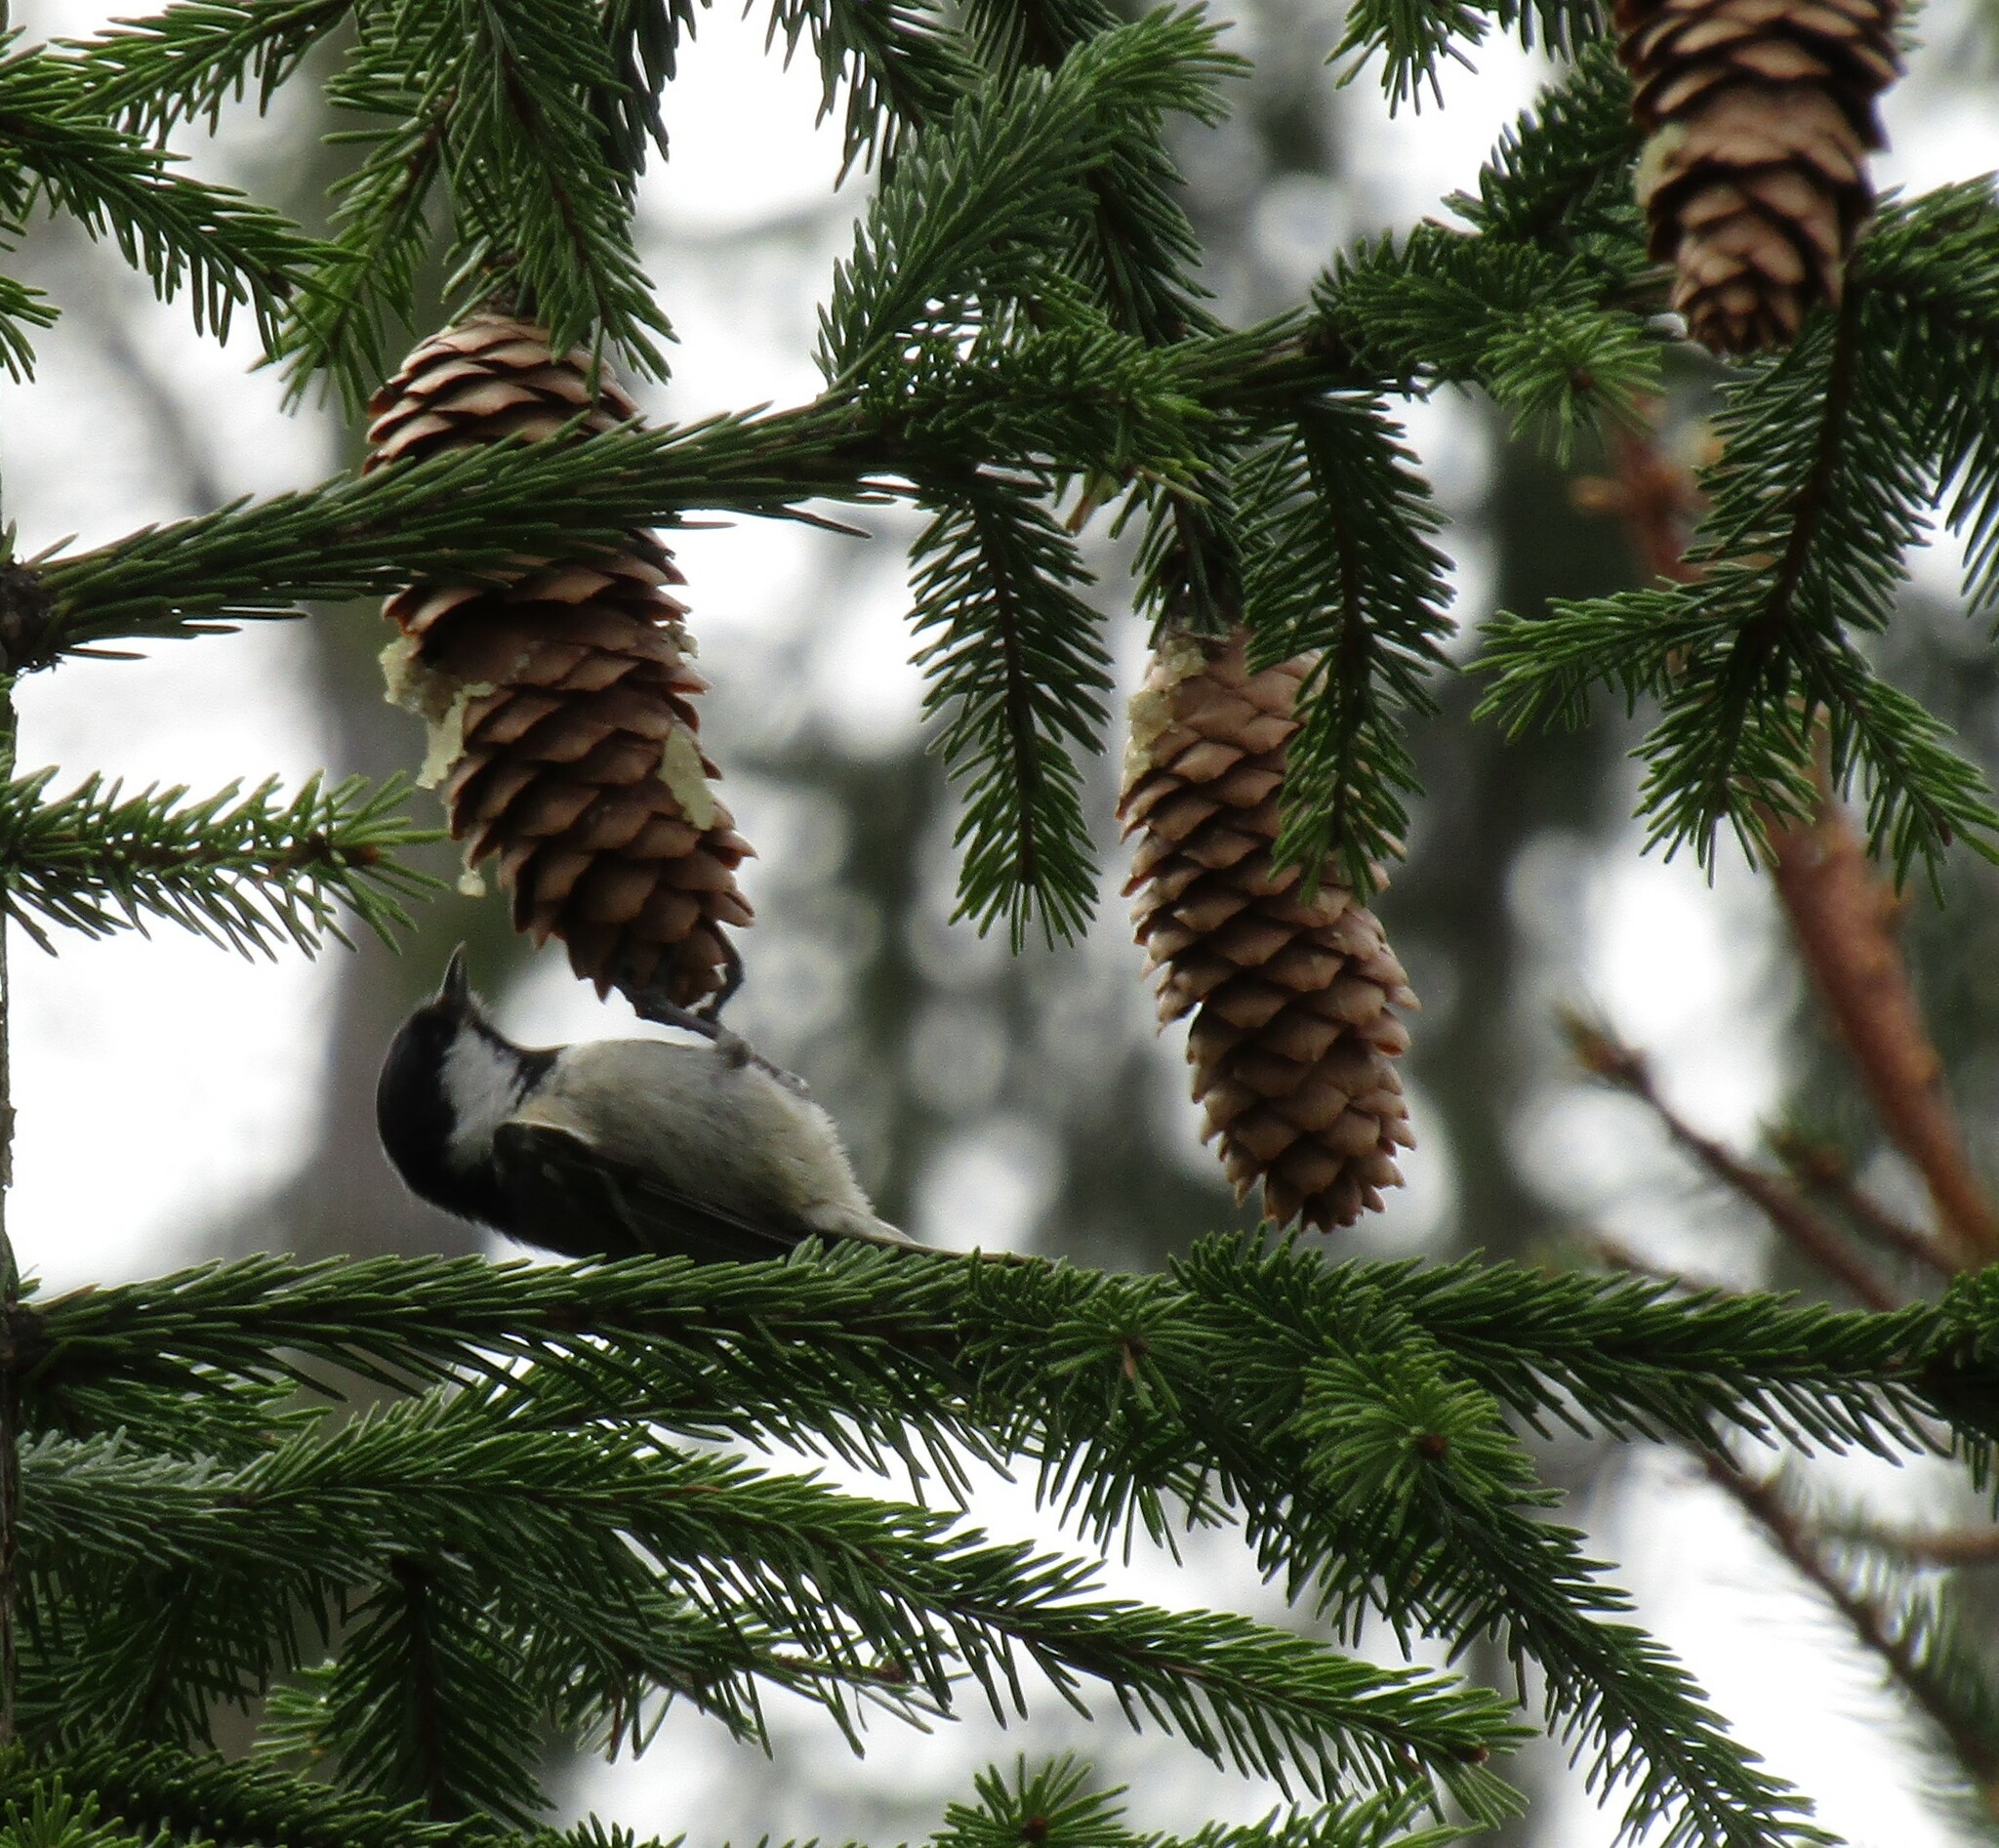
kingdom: Animalia
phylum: Chordata
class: Aves
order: Passeriformes
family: Paridae
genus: Periparus
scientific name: Periparus ater
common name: Coal tit
